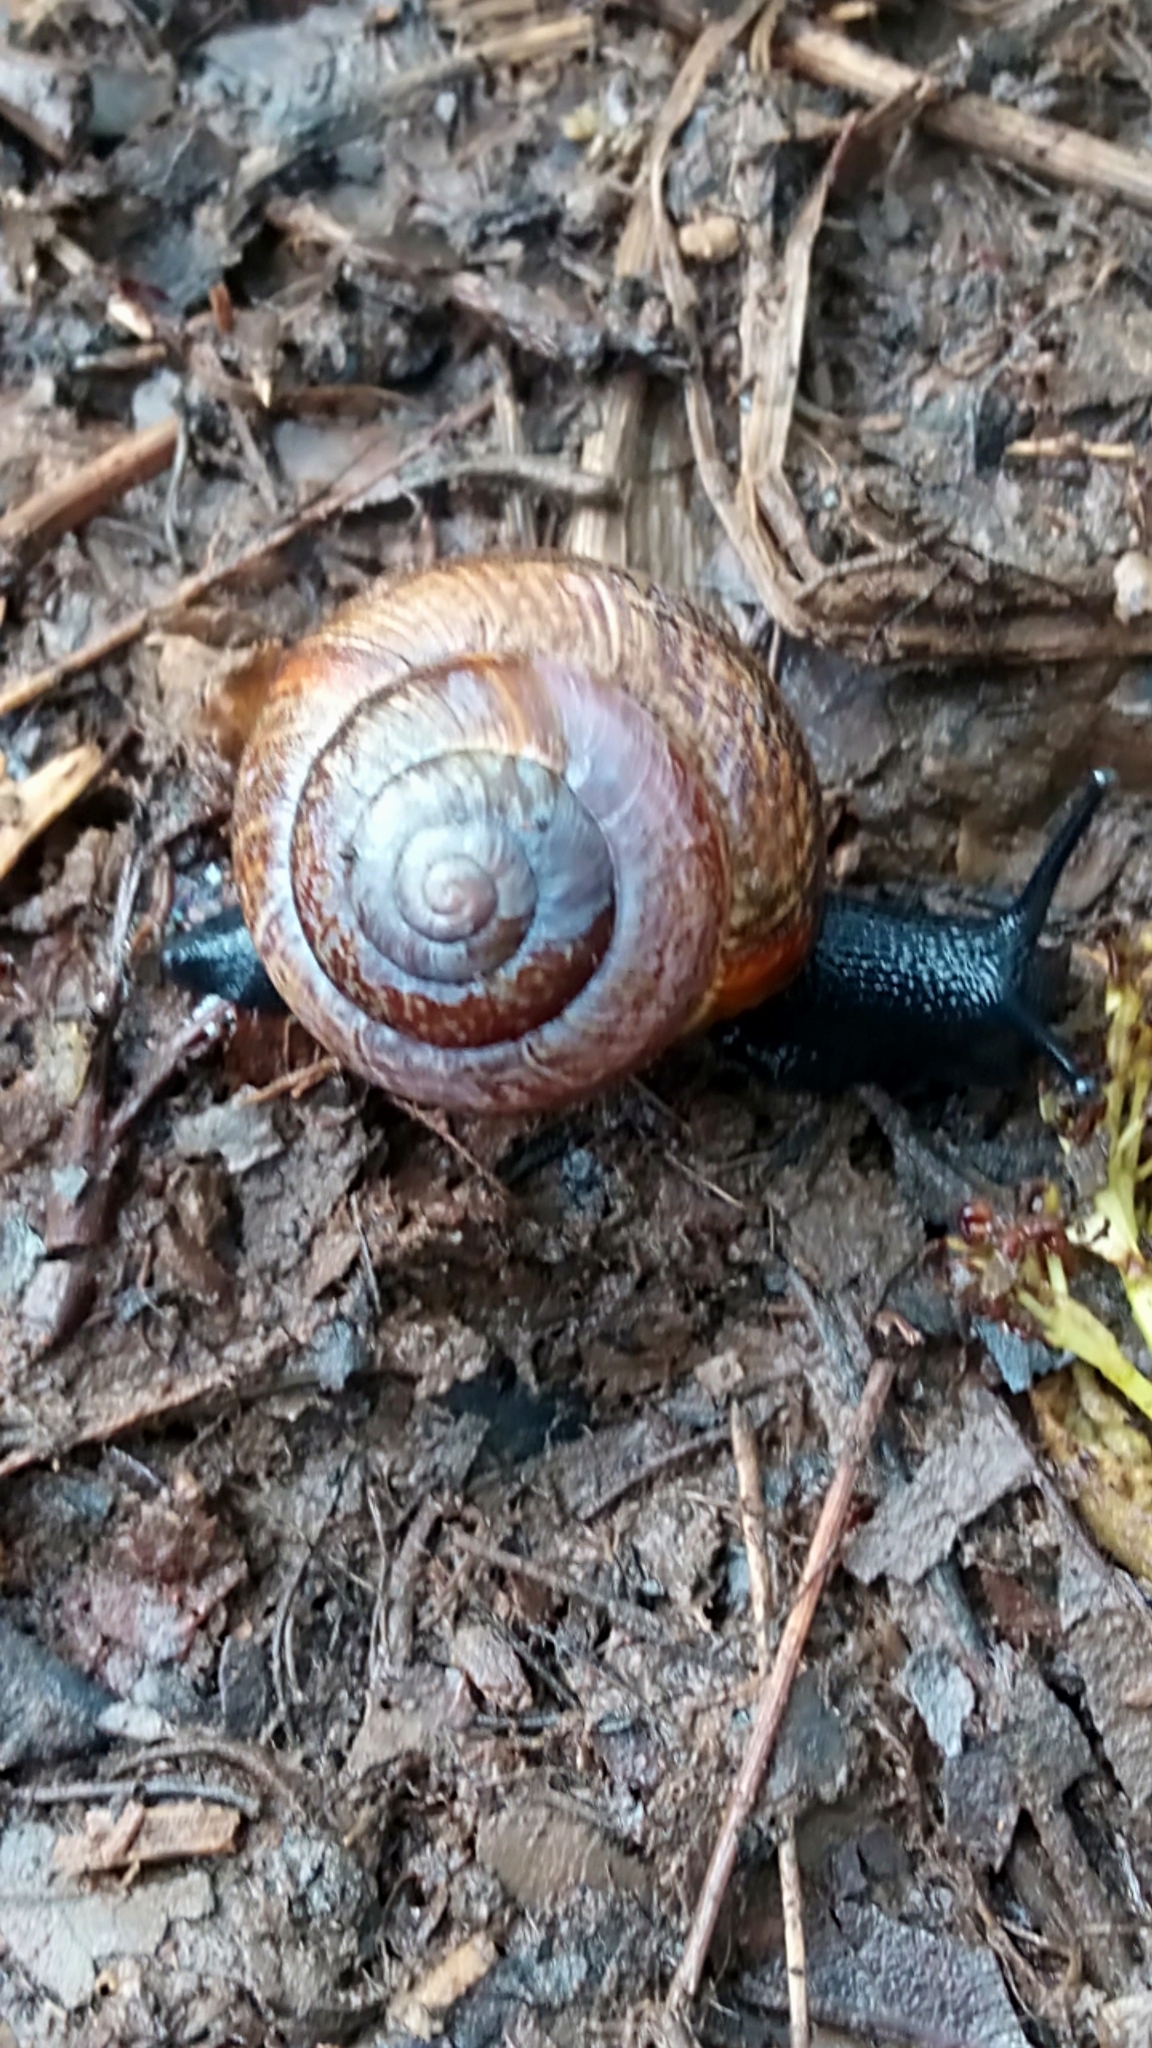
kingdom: Animalia
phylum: Mollusca
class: Gastropoda
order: Stylommatophora
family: Helicidae
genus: Arianta
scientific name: Arianta arbustorum
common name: Copse snail
